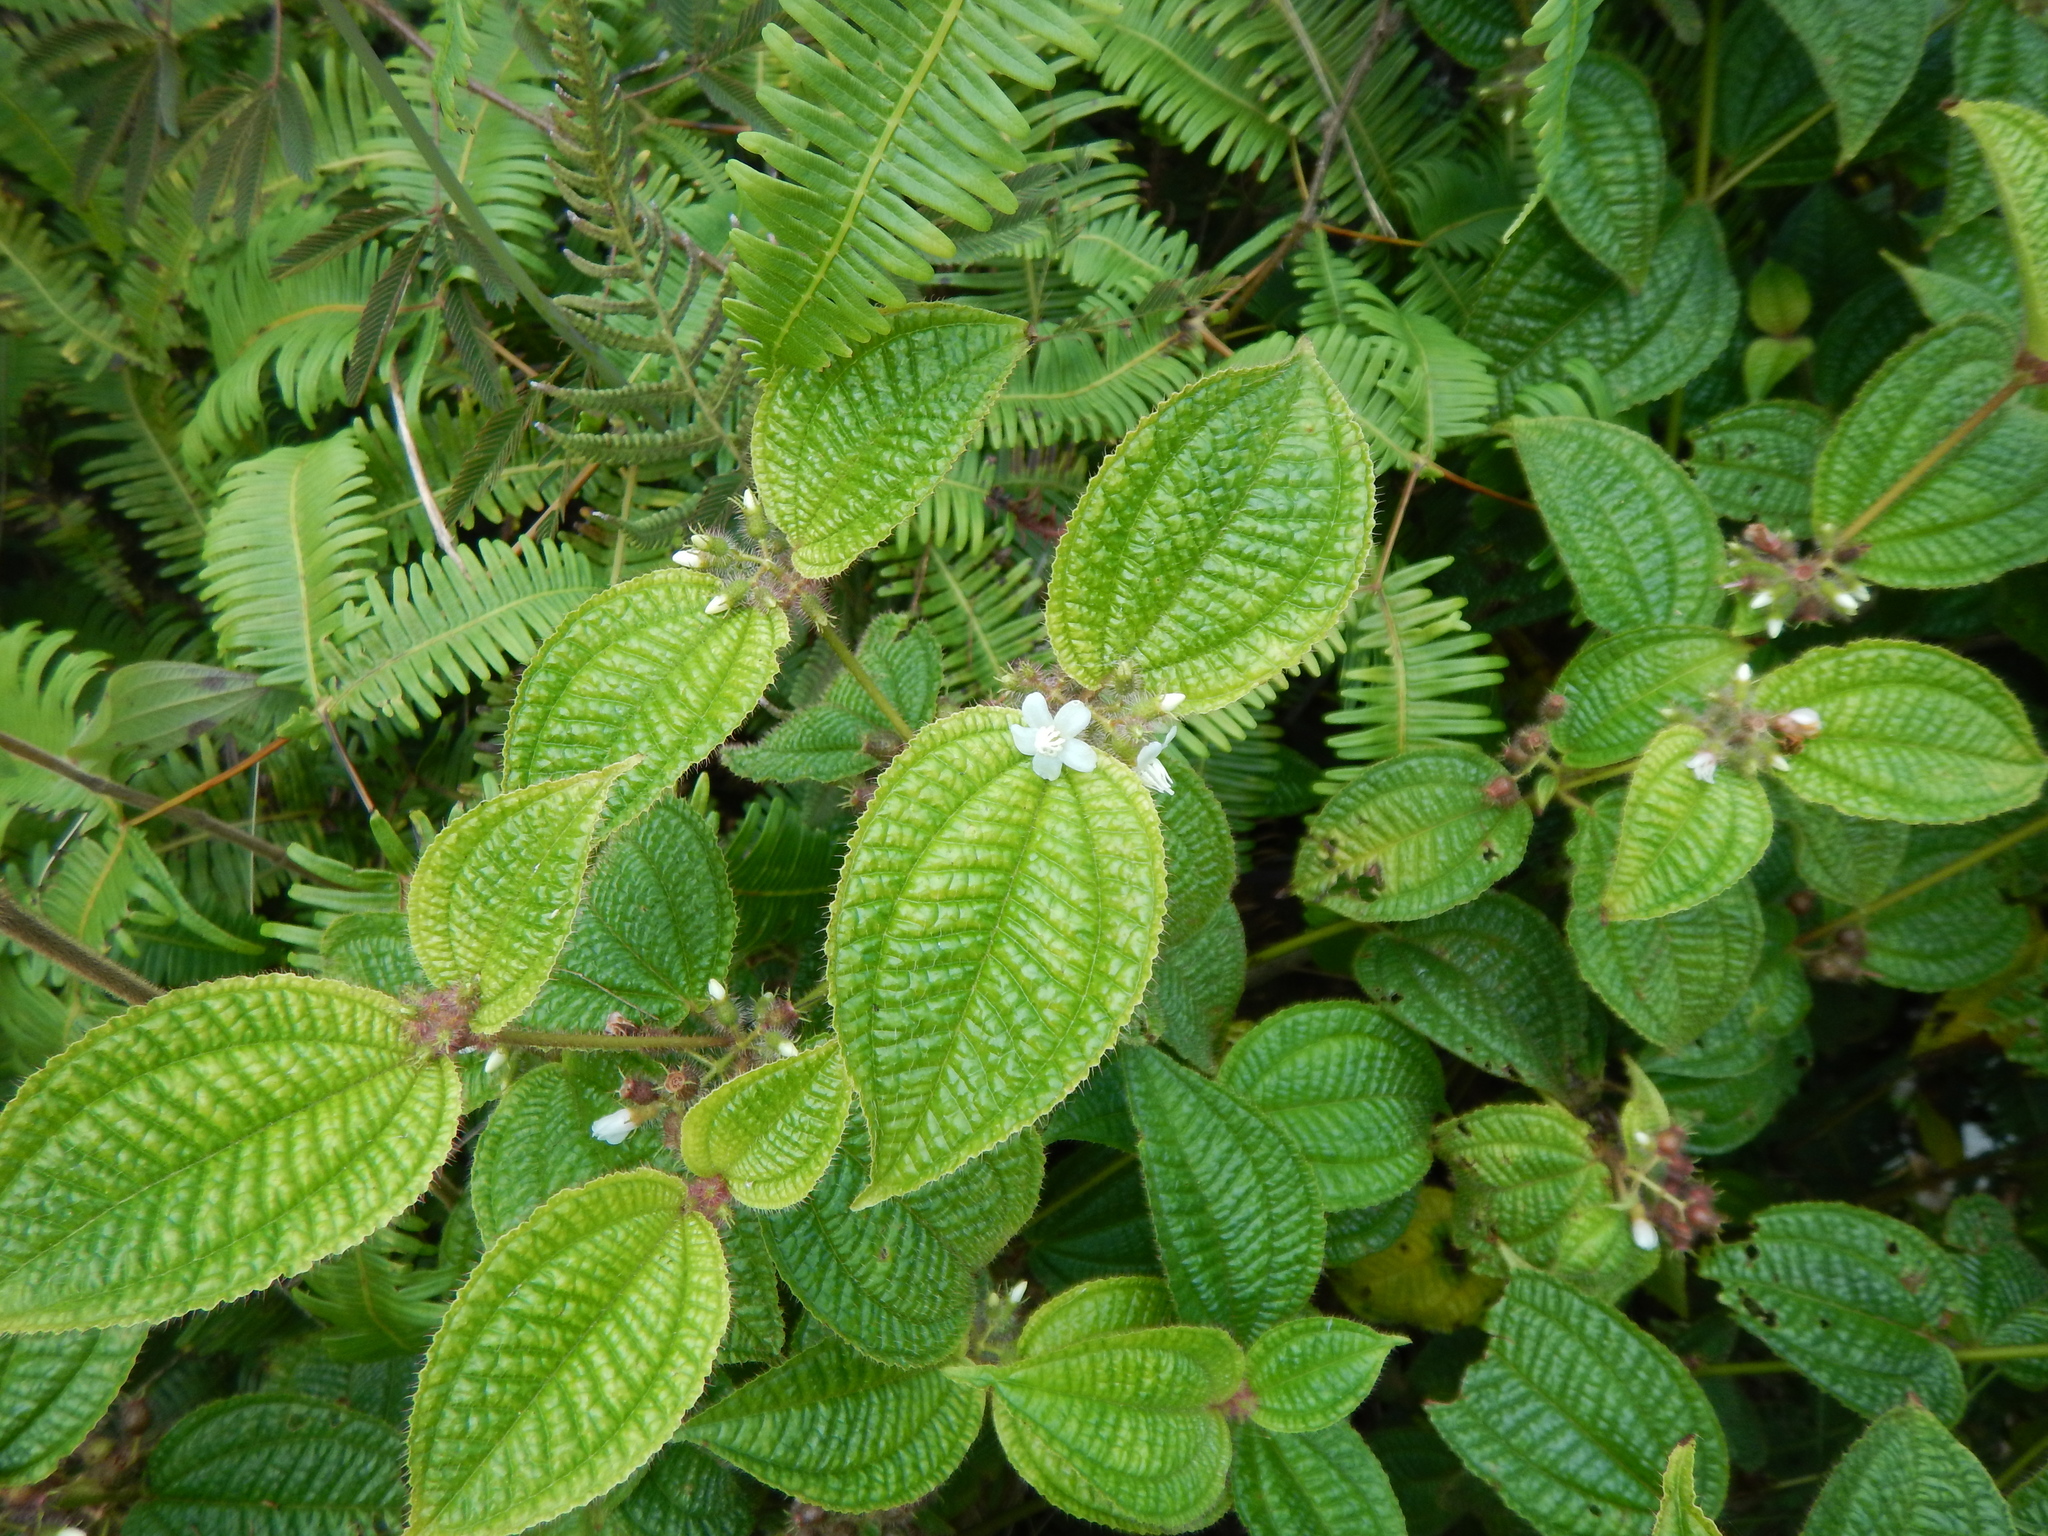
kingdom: Plantae
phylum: Tracheophyta
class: Magnoliopsida
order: Myrtales
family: Melastomataceae
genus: Miconia
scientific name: Miconia crenata
